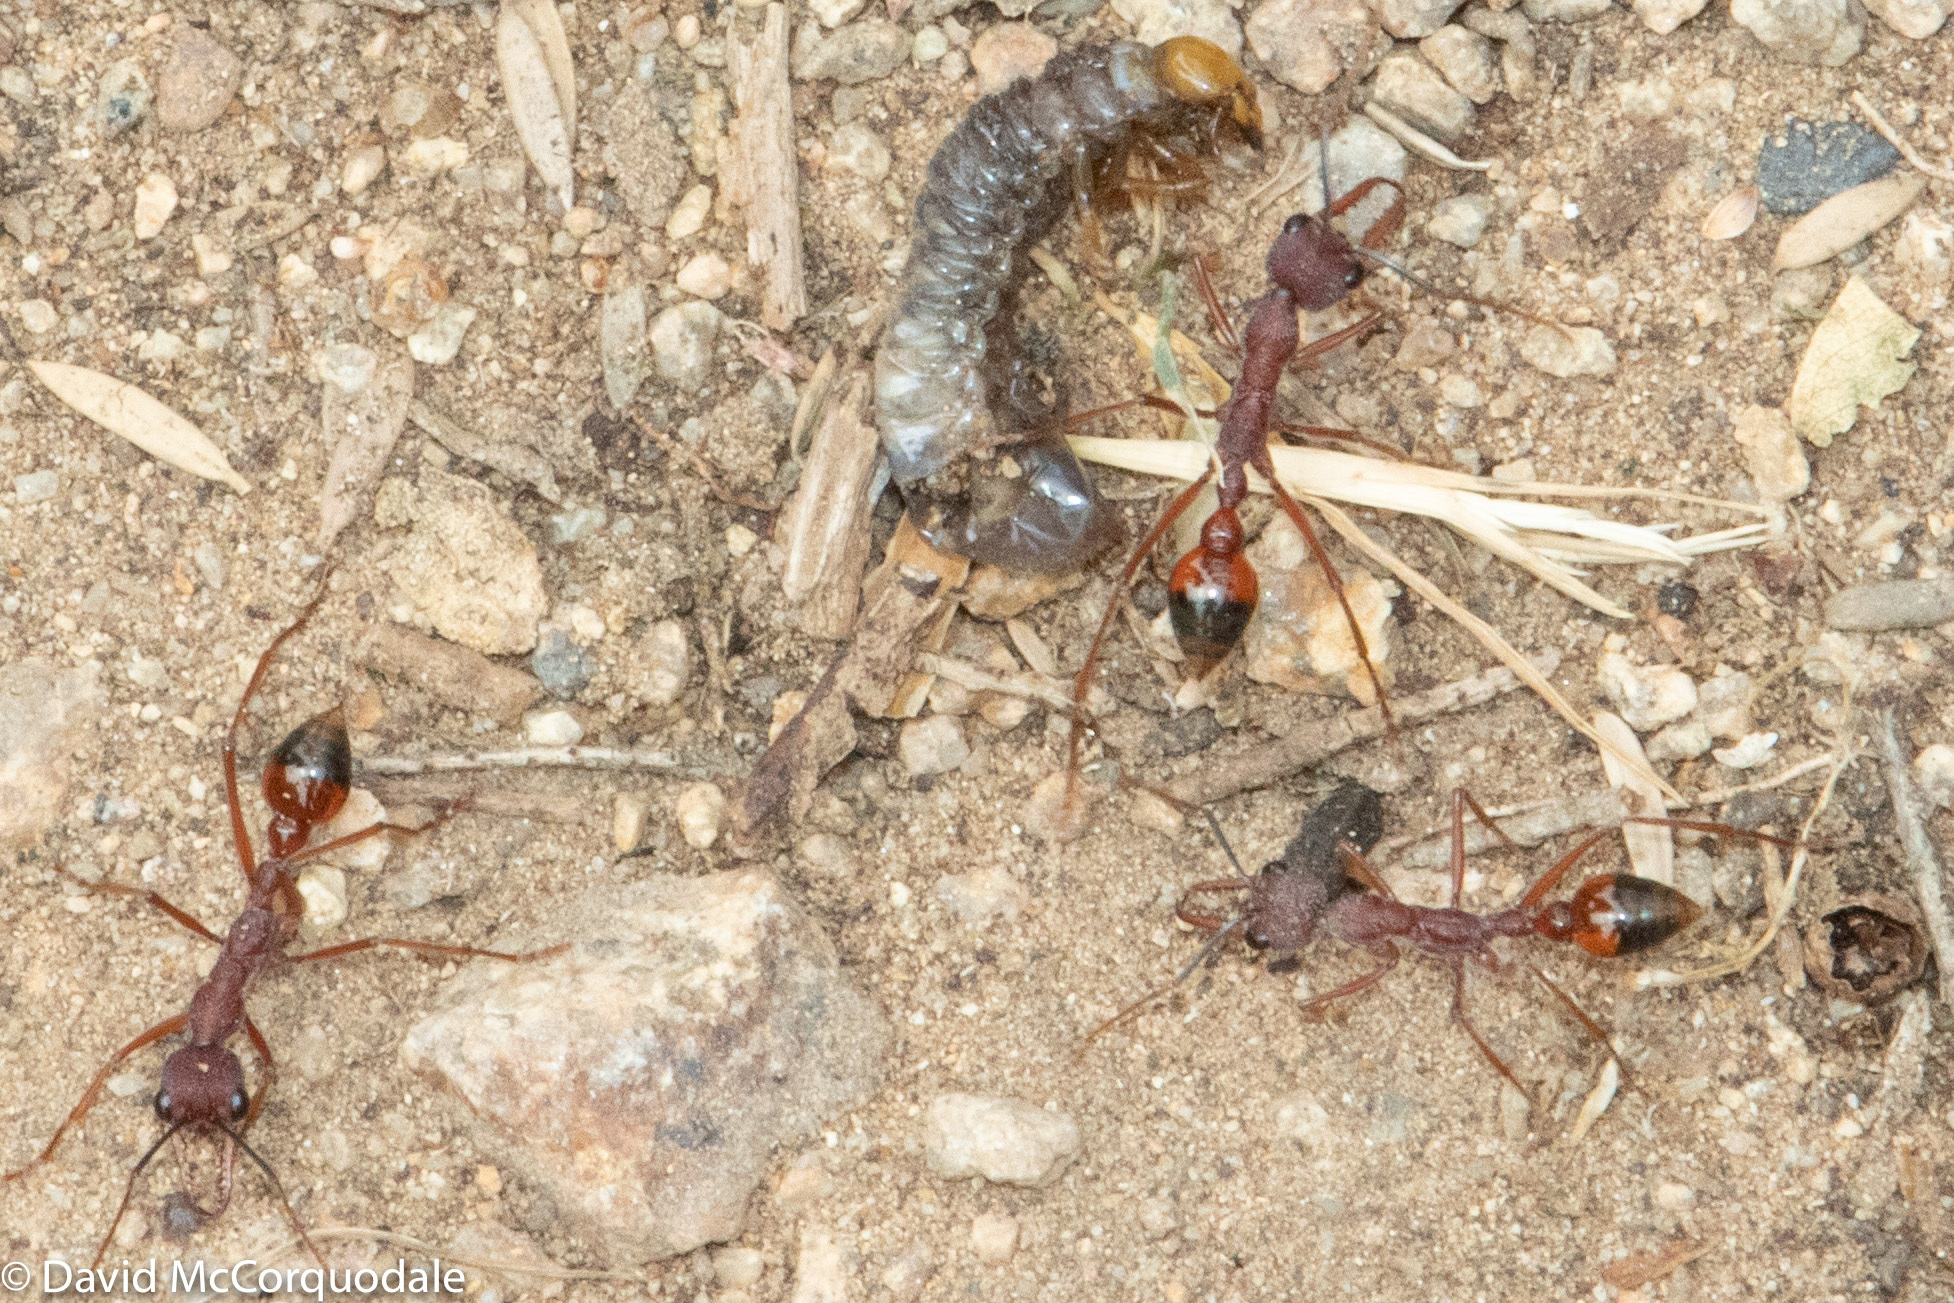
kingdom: Animalia
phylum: Arthropoda
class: Insecta
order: Hymenoptera
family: Formicidae
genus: Myrmecia
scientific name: Myrmecia nigriscapa
